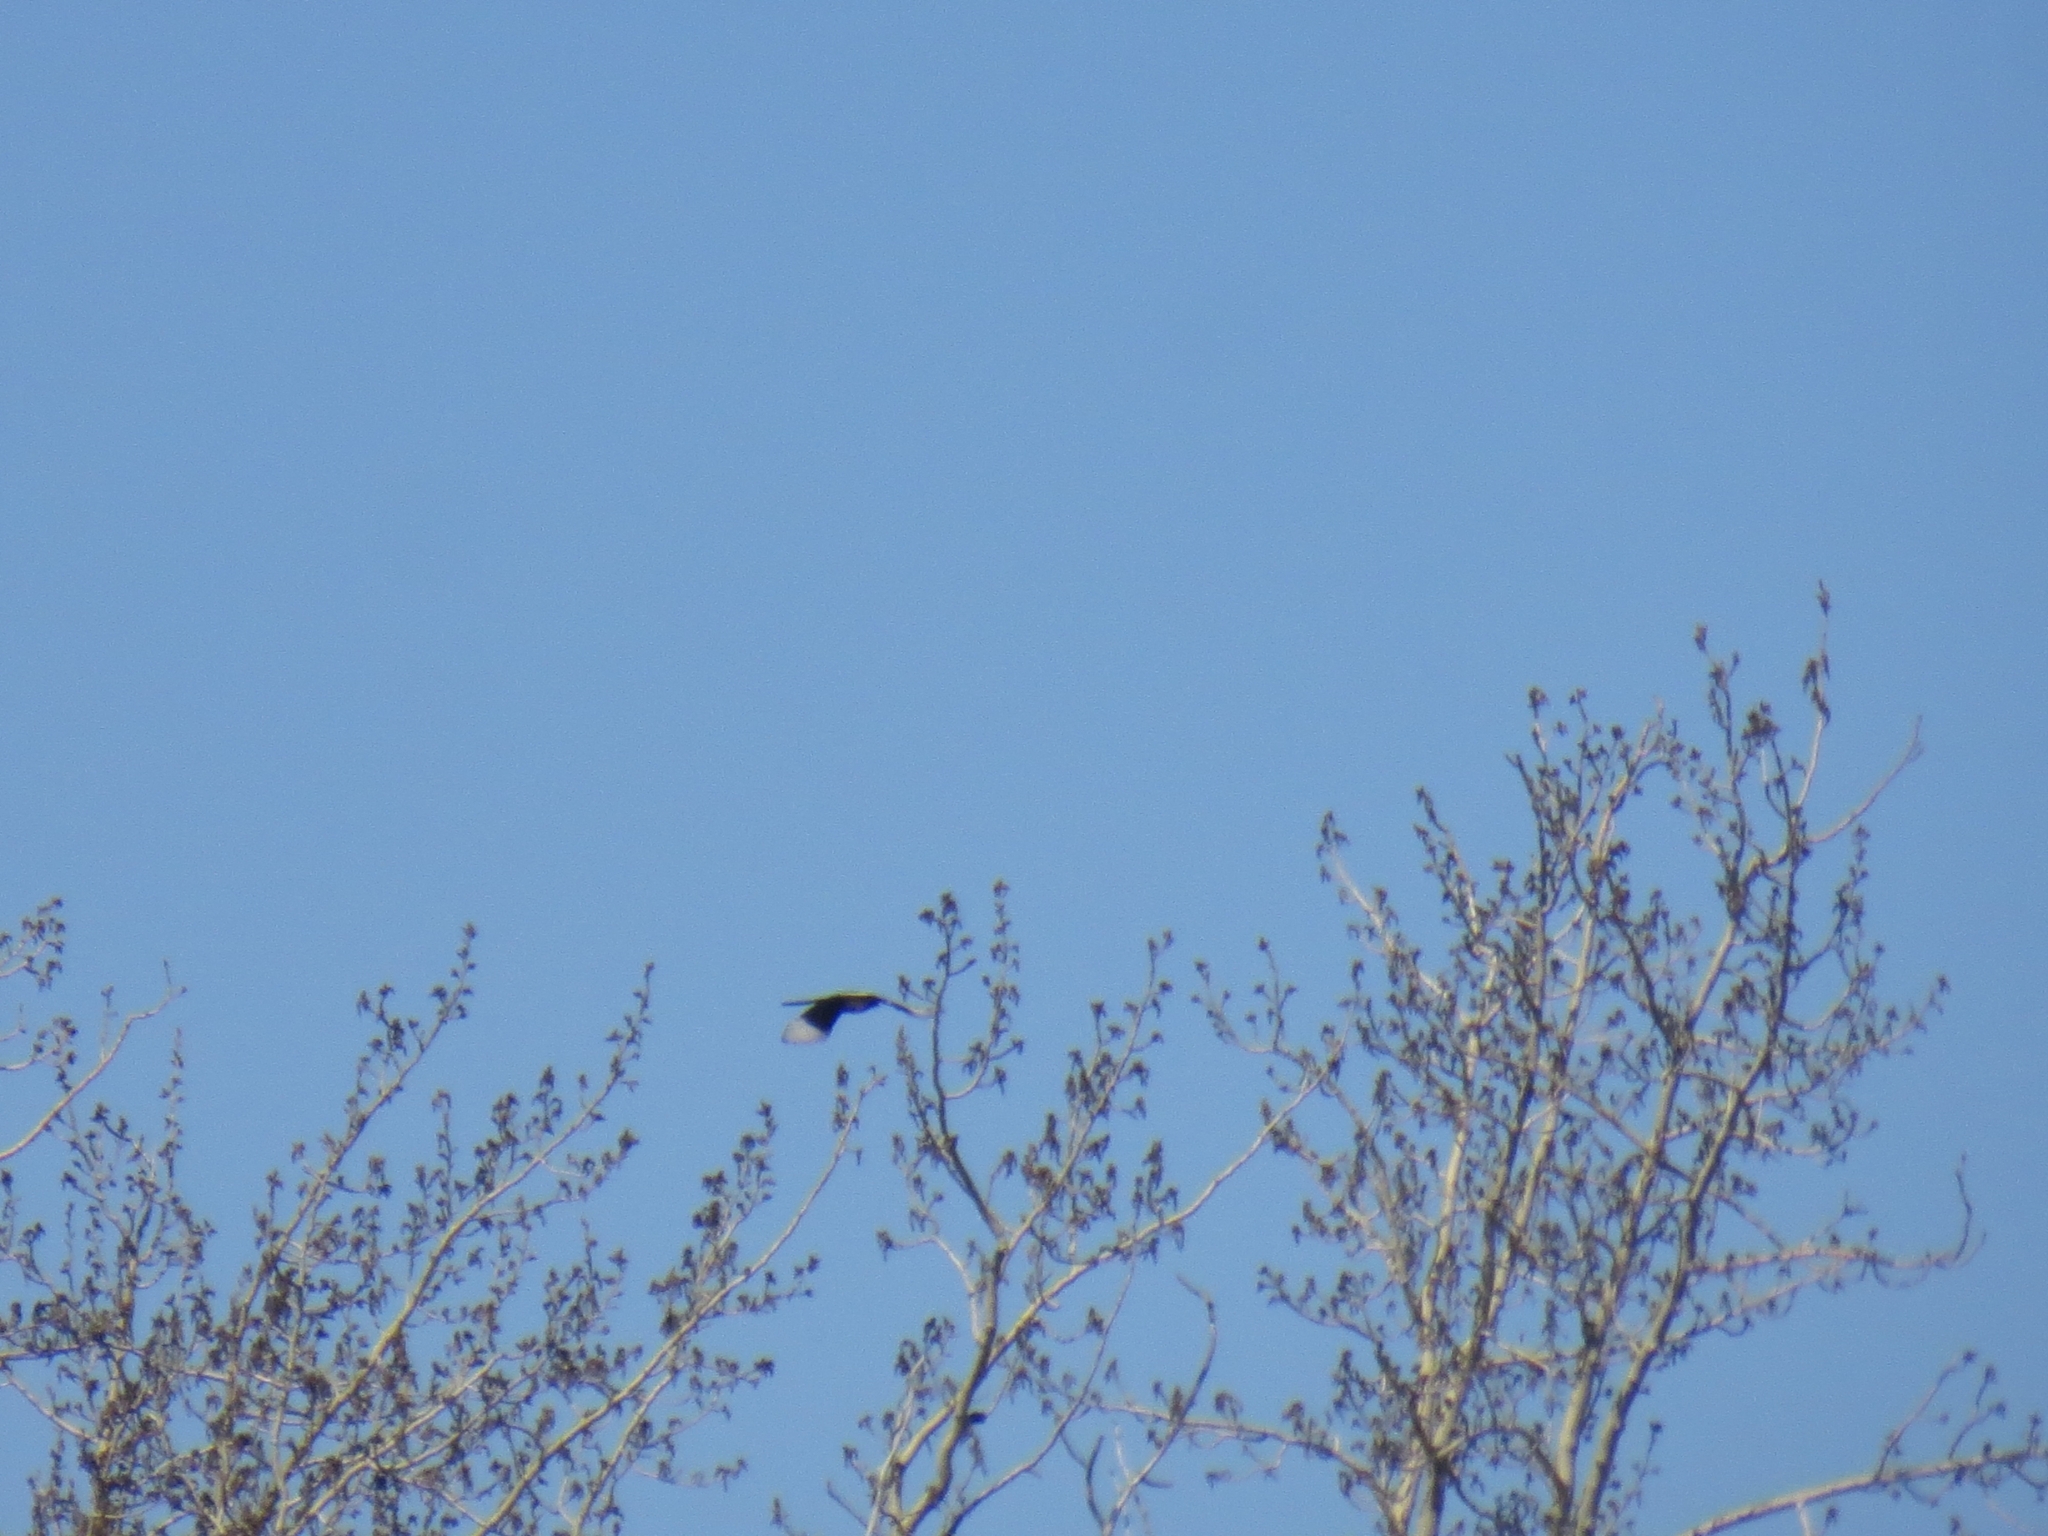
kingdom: Animalia
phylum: Chordata
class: Aves
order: Passeriformes
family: Corvidae
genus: Pica
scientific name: Pica pica
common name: Eurasian magpie
